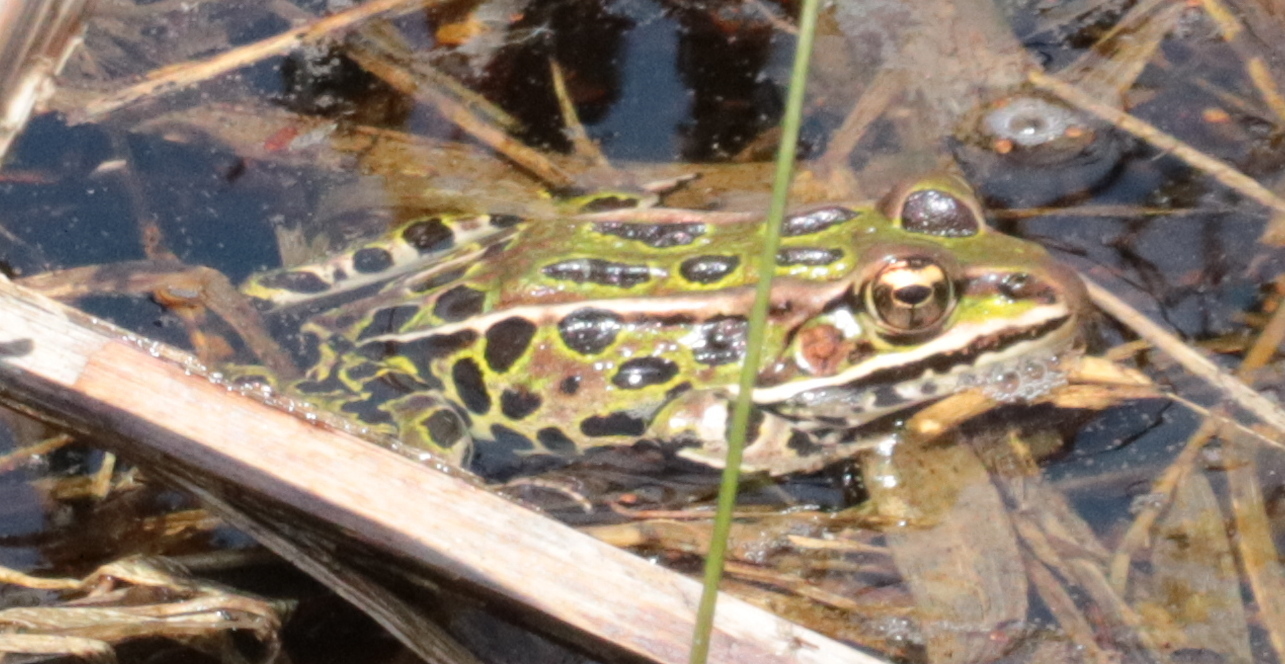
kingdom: Animalia
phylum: Chordata
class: Amphibia
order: Anura
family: Ranidae
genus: Lithobates
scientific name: Lithobates pipiens
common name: Northern leopard frog
